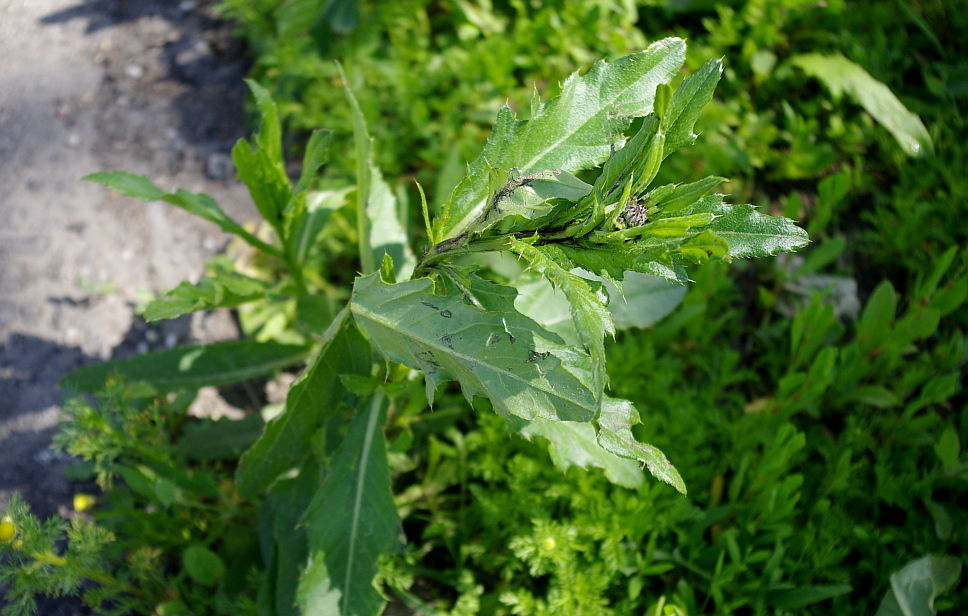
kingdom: Plantae
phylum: Tracheophyta
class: Magnoliopsida
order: Asterales
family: Asteraceae
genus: Cirsium
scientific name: Cirsium arvense
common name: Creeping thistle
